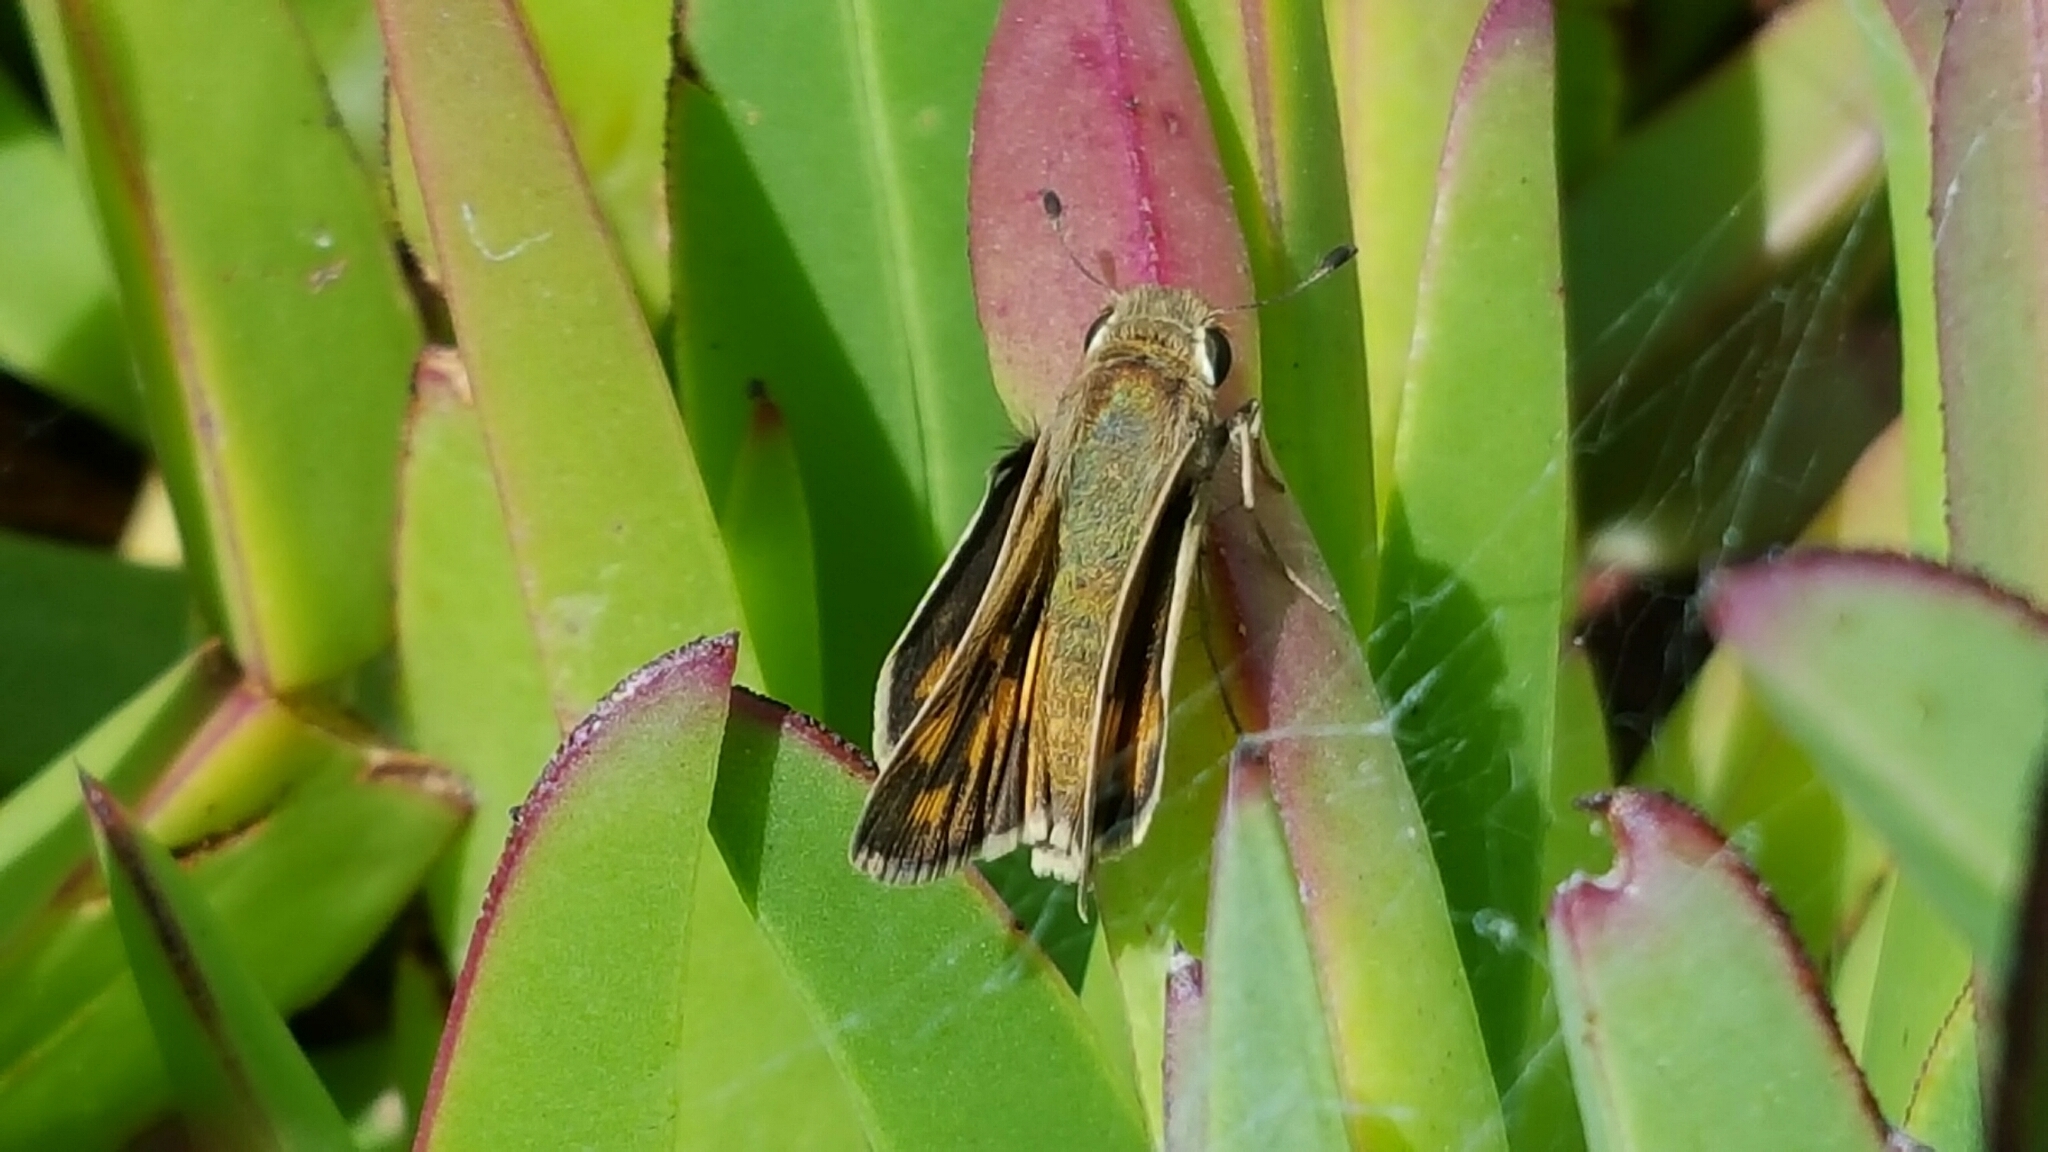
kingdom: Animalia
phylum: Arthropoda
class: Insecta
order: Lepidoptera
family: Hesperiidae
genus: Hylephila
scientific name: Hylephila phyleus
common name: Fiery skipper
